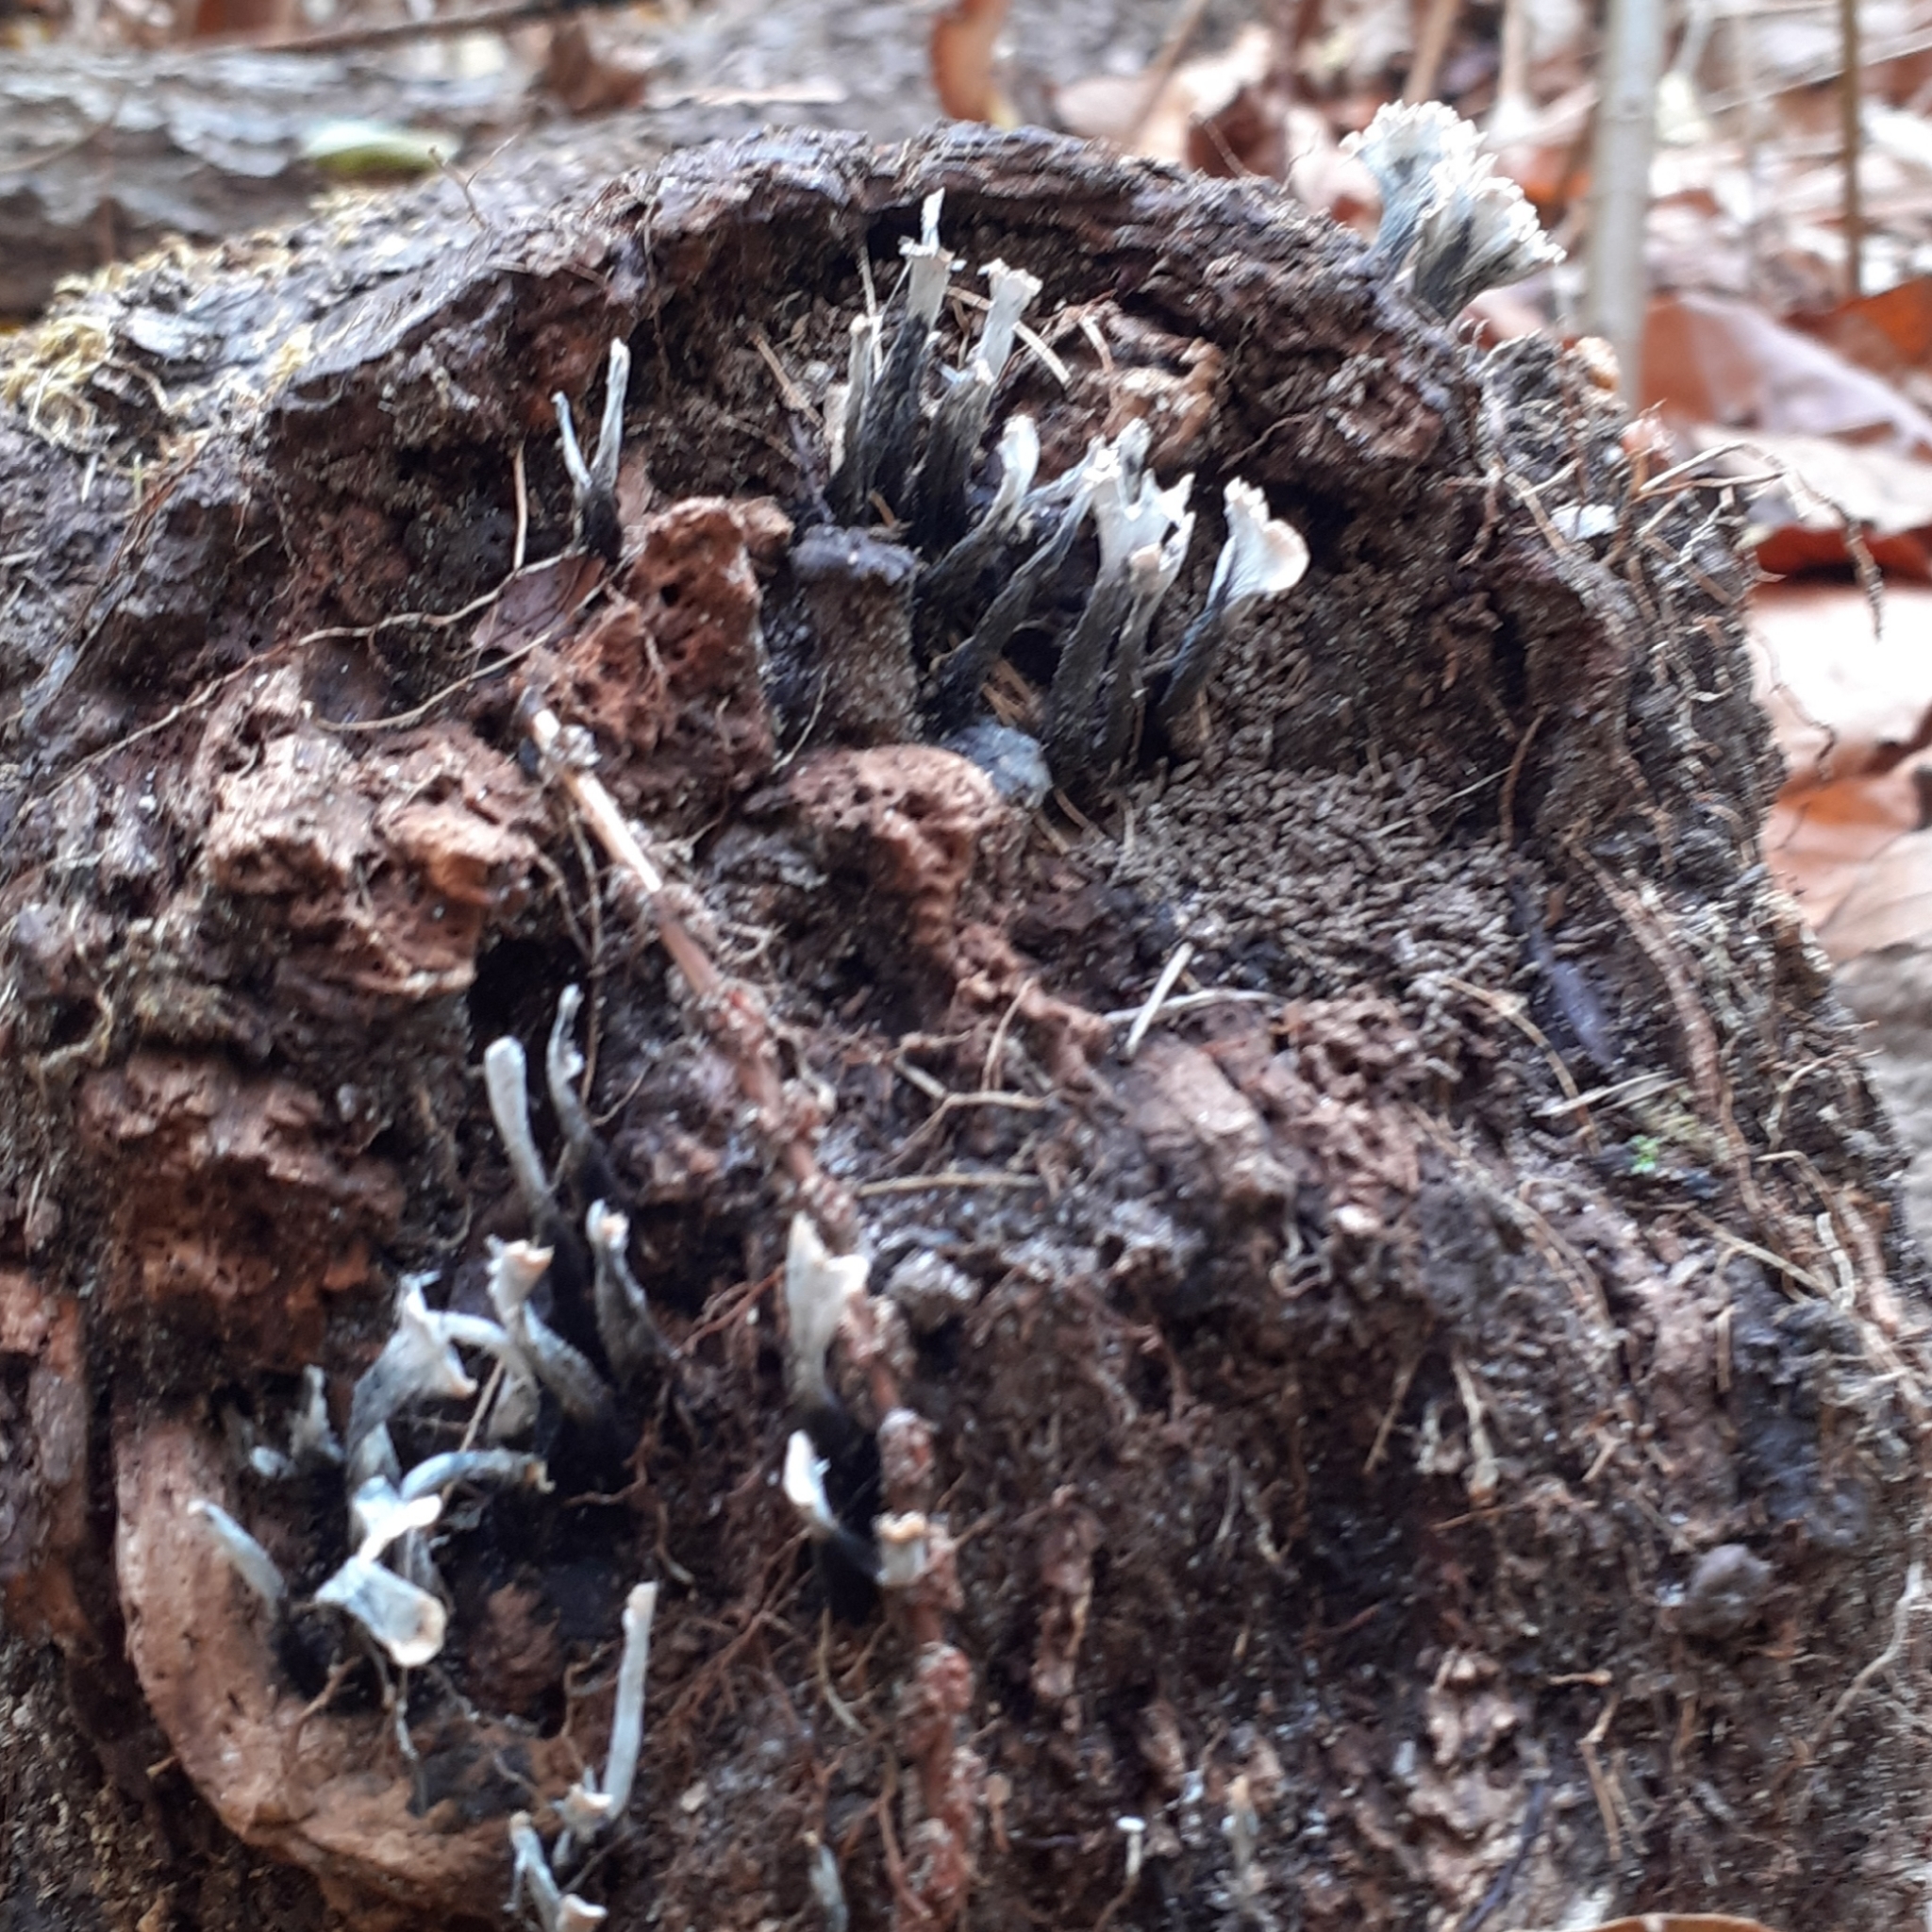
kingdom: Fungi
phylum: Ascomycota
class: Sordariomycetes
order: Xylariales
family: Xylariaceae
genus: Xylaria
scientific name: Xylaria hypoxylon
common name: Candle-snuff fungus
